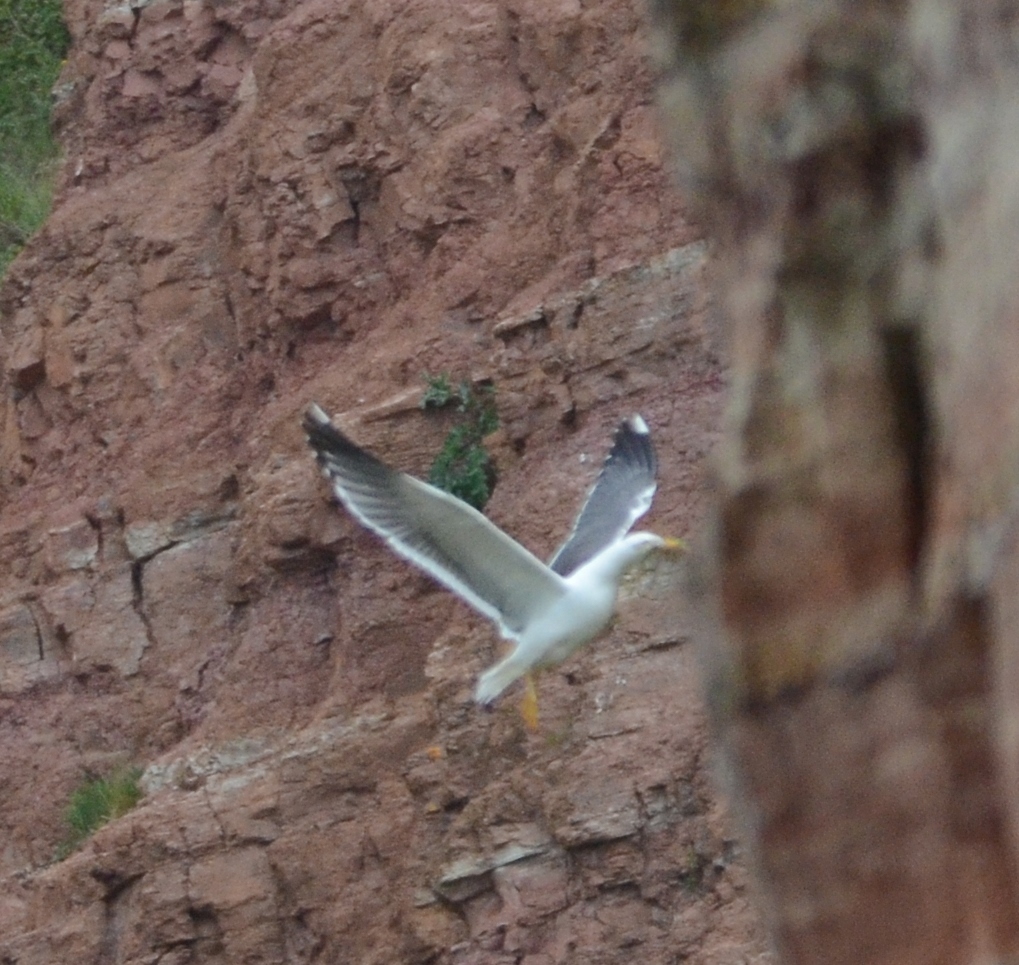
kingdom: Animalia
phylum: Chordata
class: Aves
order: Charadriiformes
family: Laridae
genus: Larus
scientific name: Larus fuscus
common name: Lesser black-backed gull
